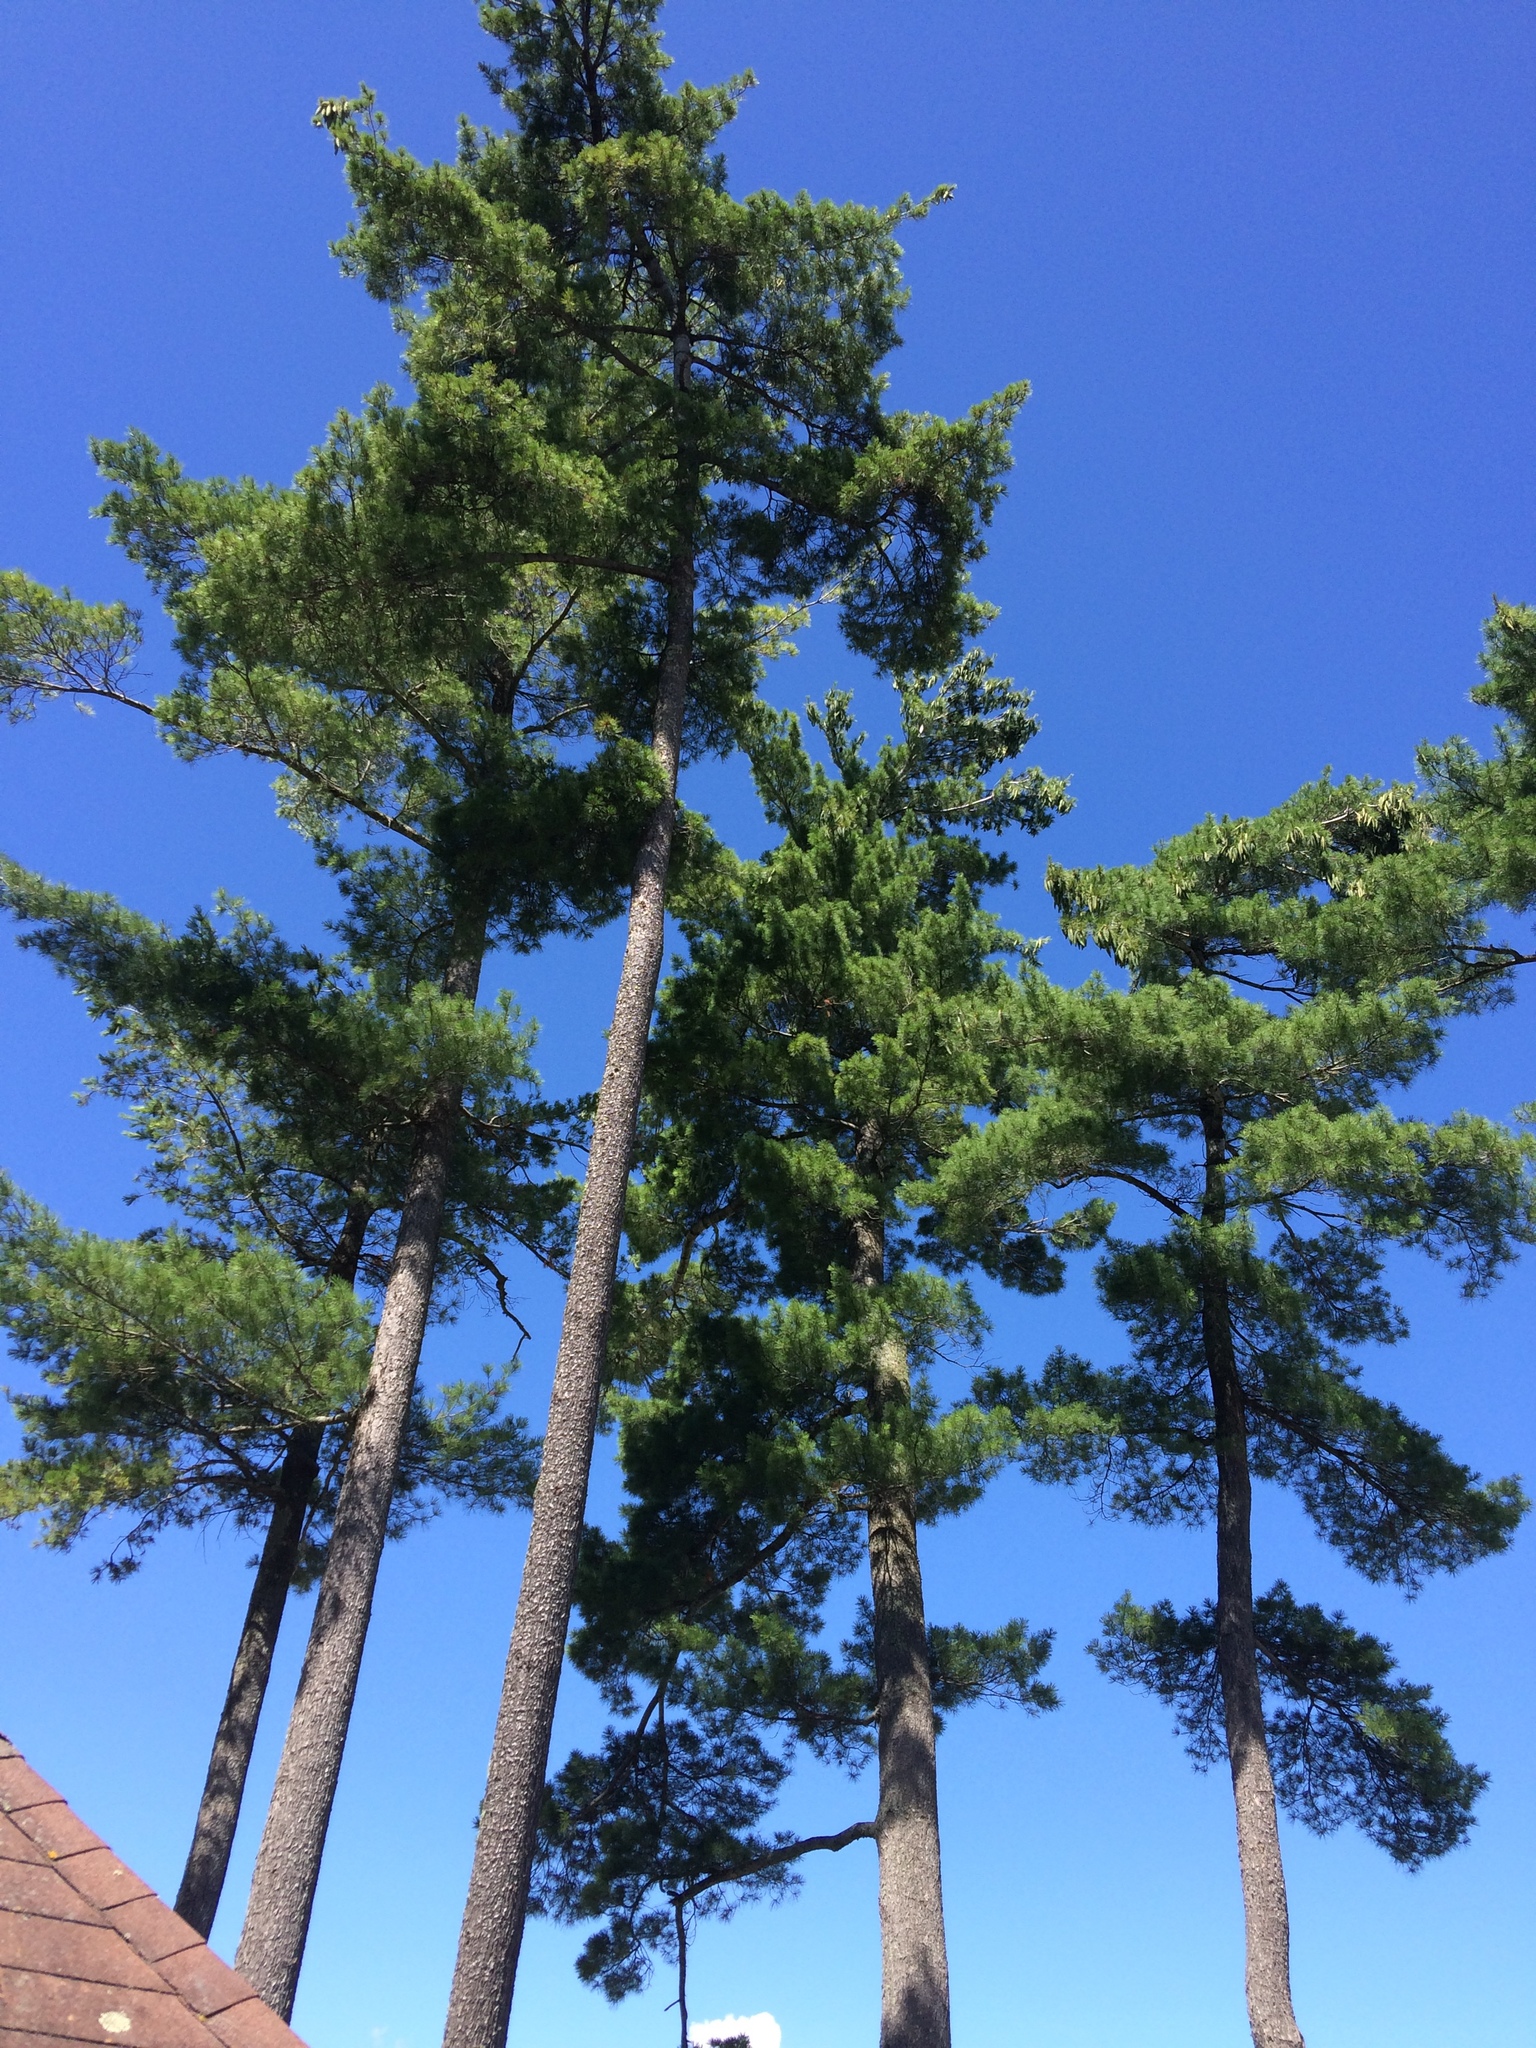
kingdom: Plantae
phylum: Tracheophyta
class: Pinopsida
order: Pinales
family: Pinaceae
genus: Pinus
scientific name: Pinus strobus
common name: Weymouth pine
